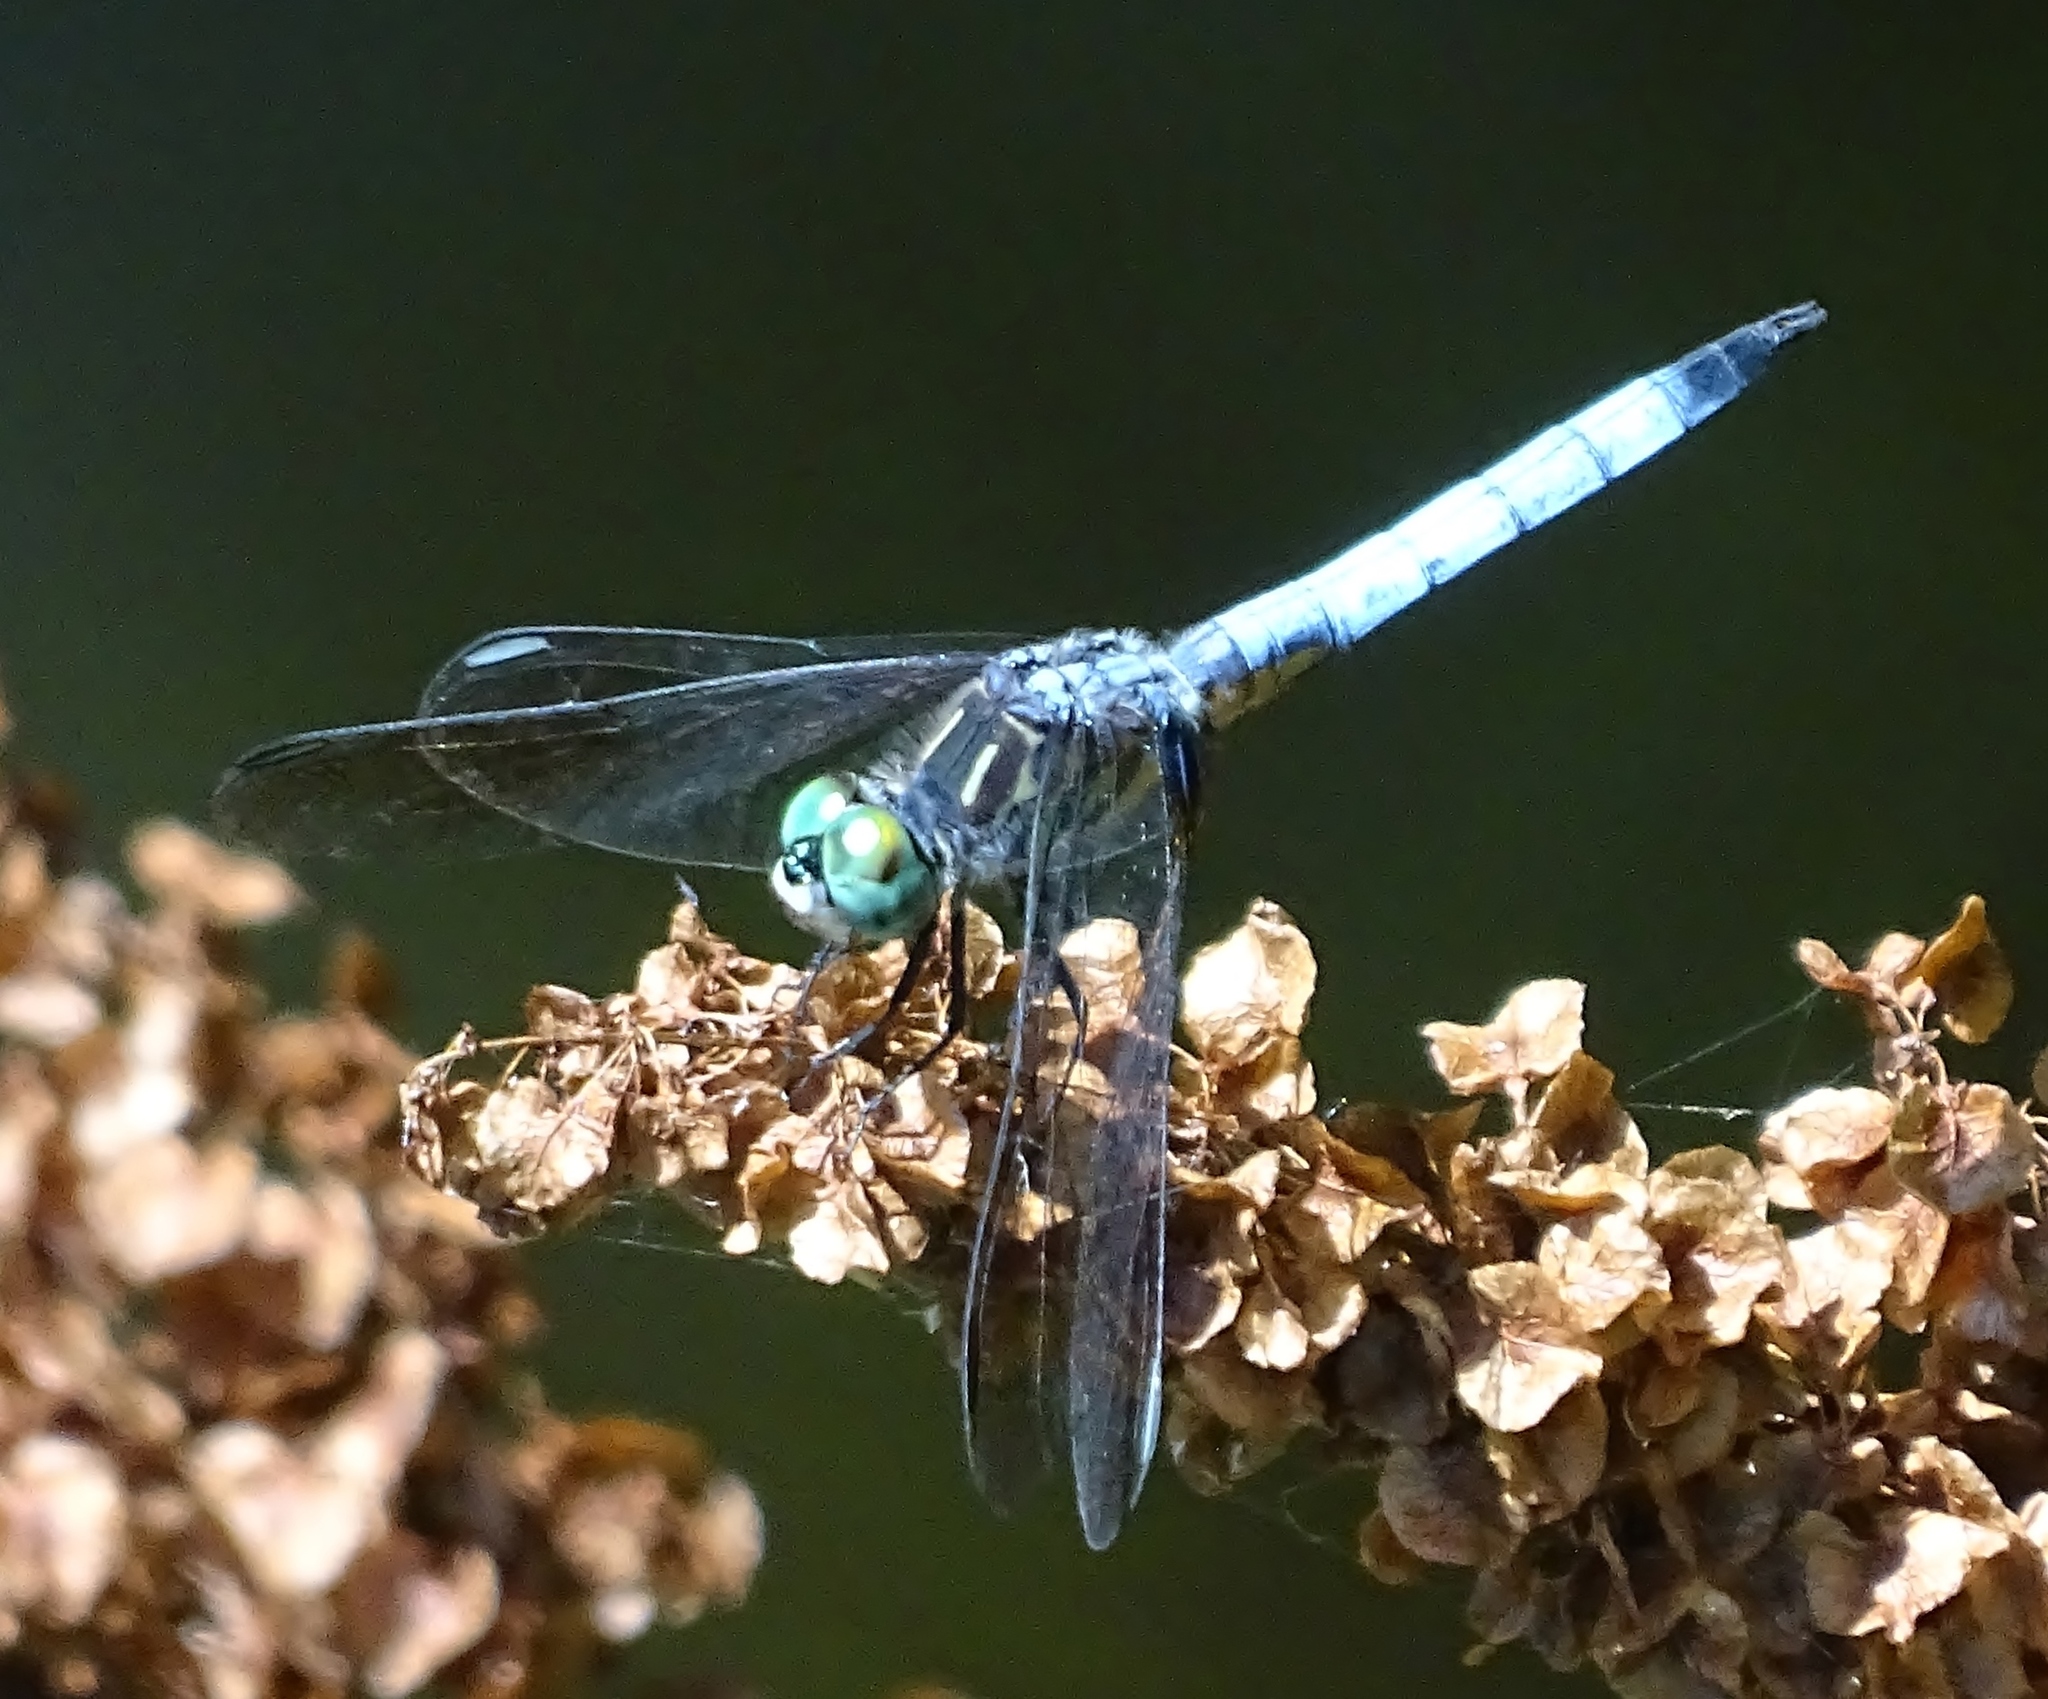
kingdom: Animalia
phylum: Arthropoda
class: Insecta
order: Odonata
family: Libellulidae
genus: Pachydiplax
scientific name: Pachydiplax longipennis
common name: Blue dasher
